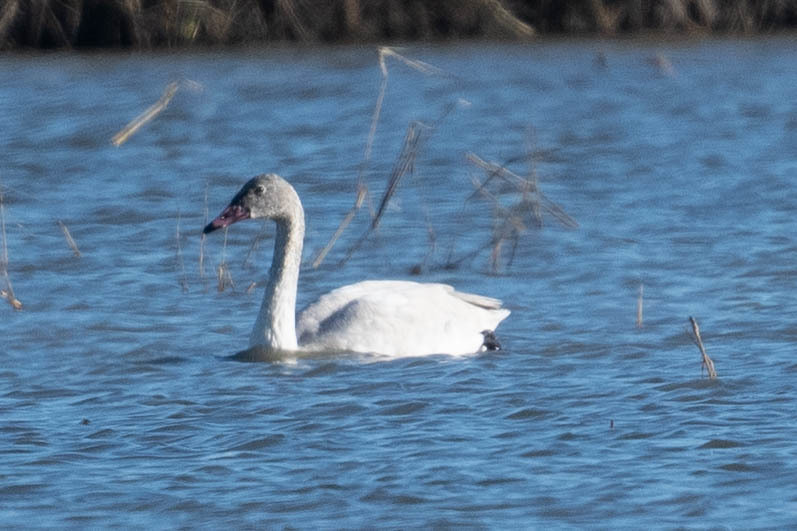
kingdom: Animalia
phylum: Chordata
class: Aves
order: Anseriformes
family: Anatidae
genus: Cygnus
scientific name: Cygnus columbianus
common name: Tundra swan
